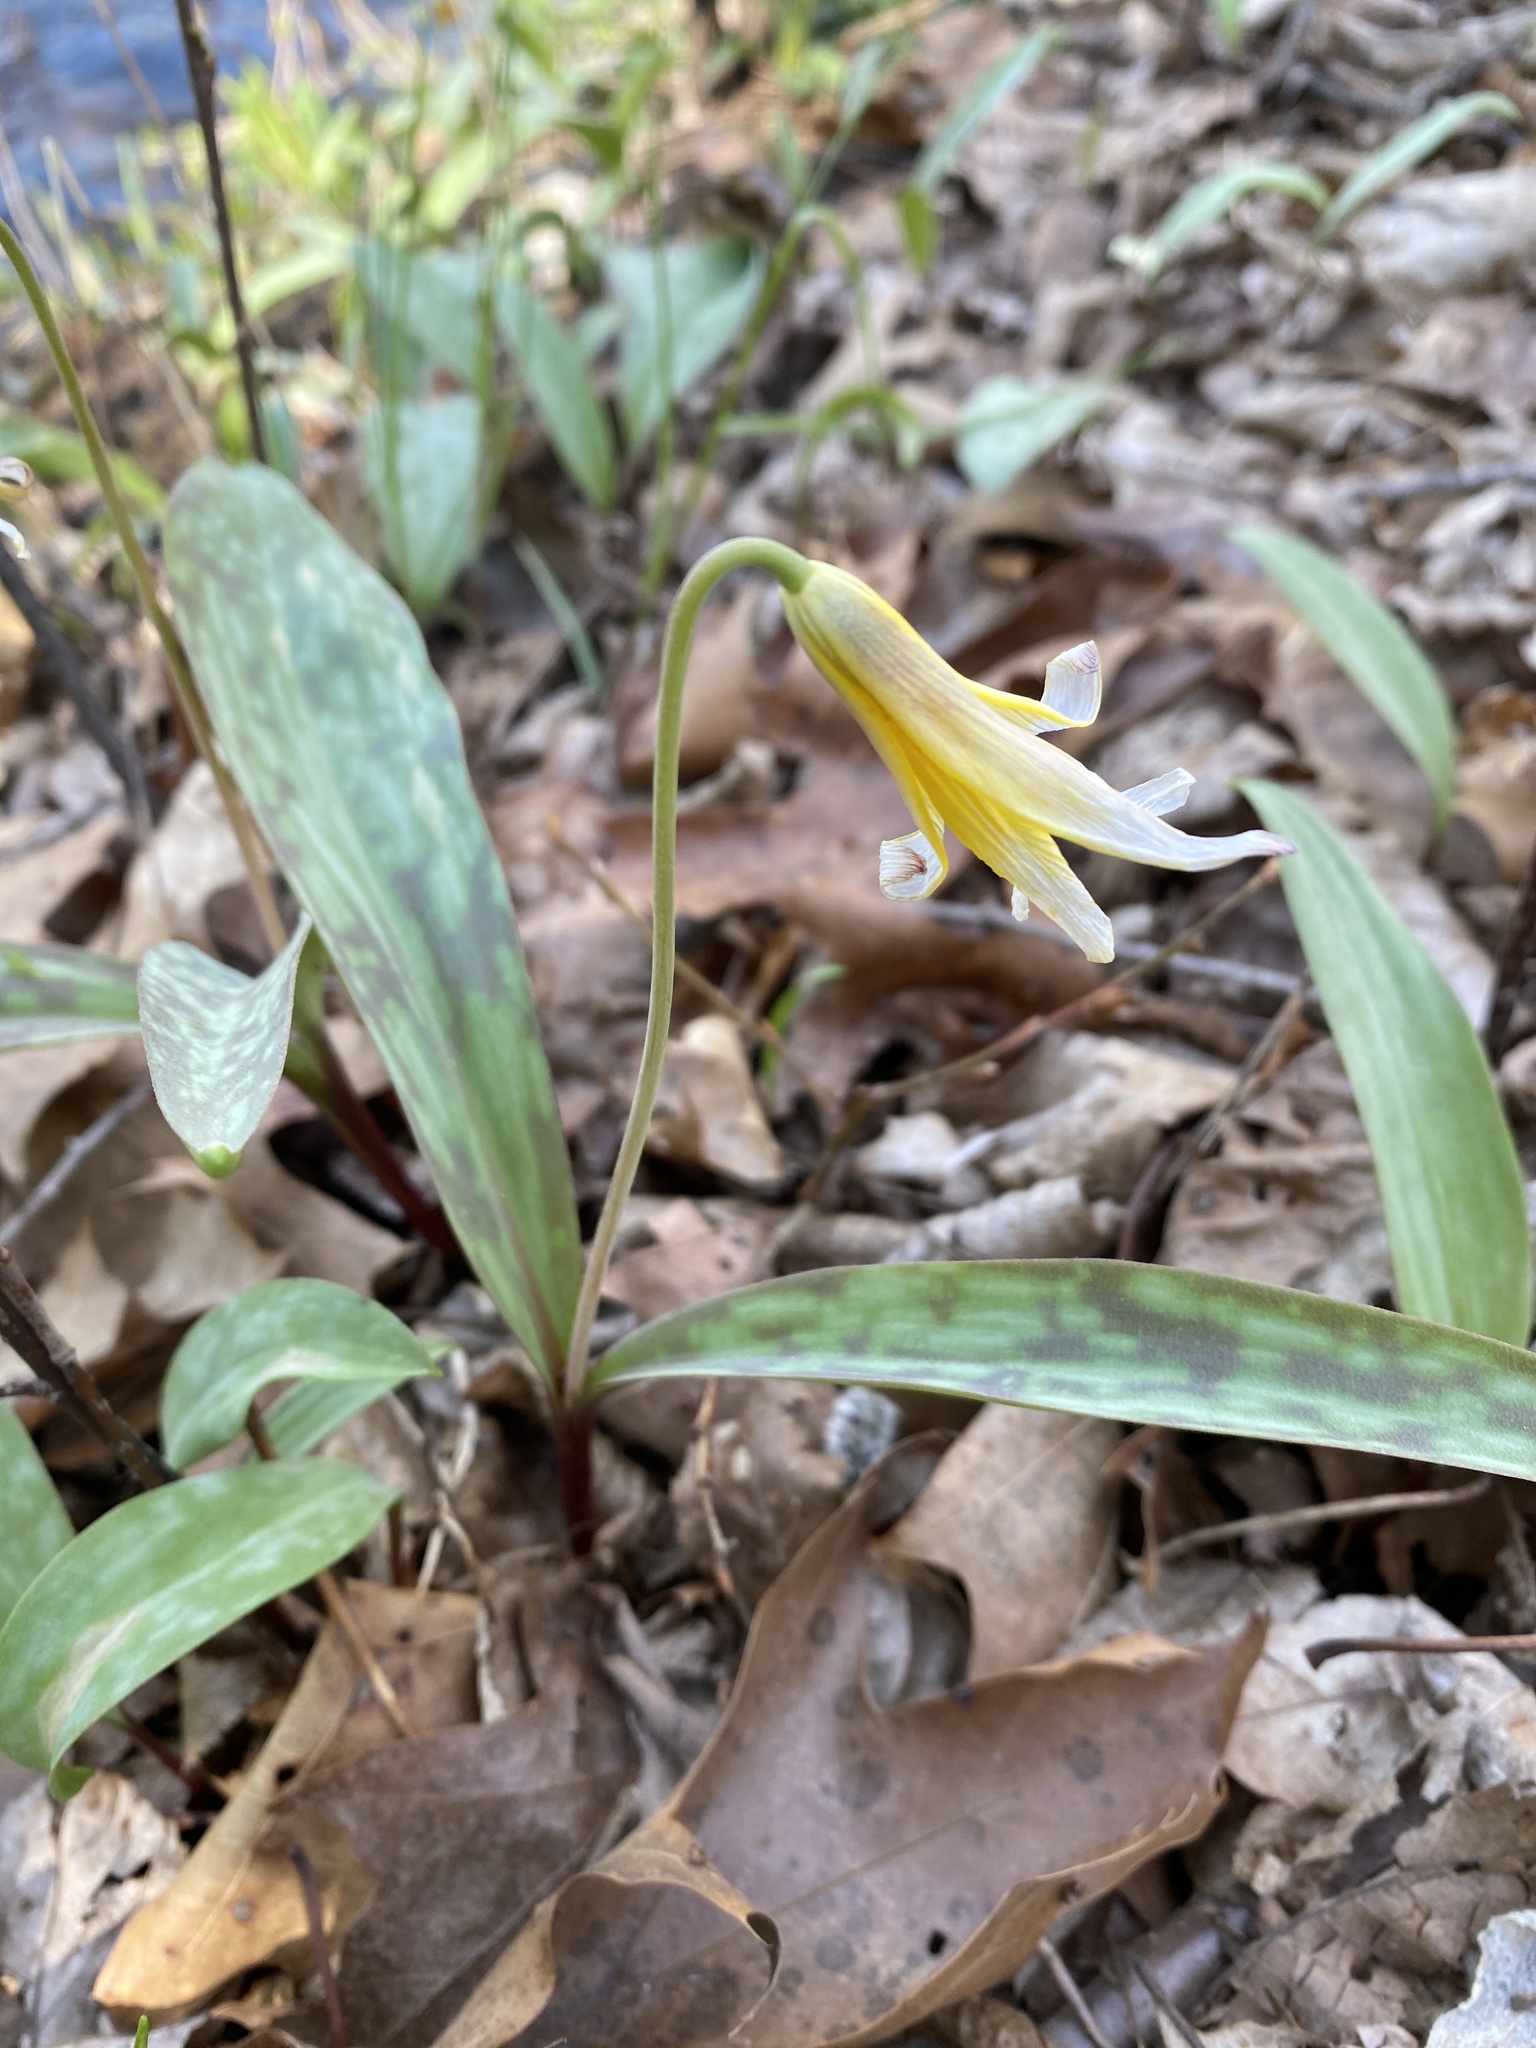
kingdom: Plantae
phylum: Tracheophyta
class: Liliopsida
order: Liliales
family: Liliaceae
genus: Erythronium
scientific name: Erythronium americanum
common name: Yellow adder's-tongue
